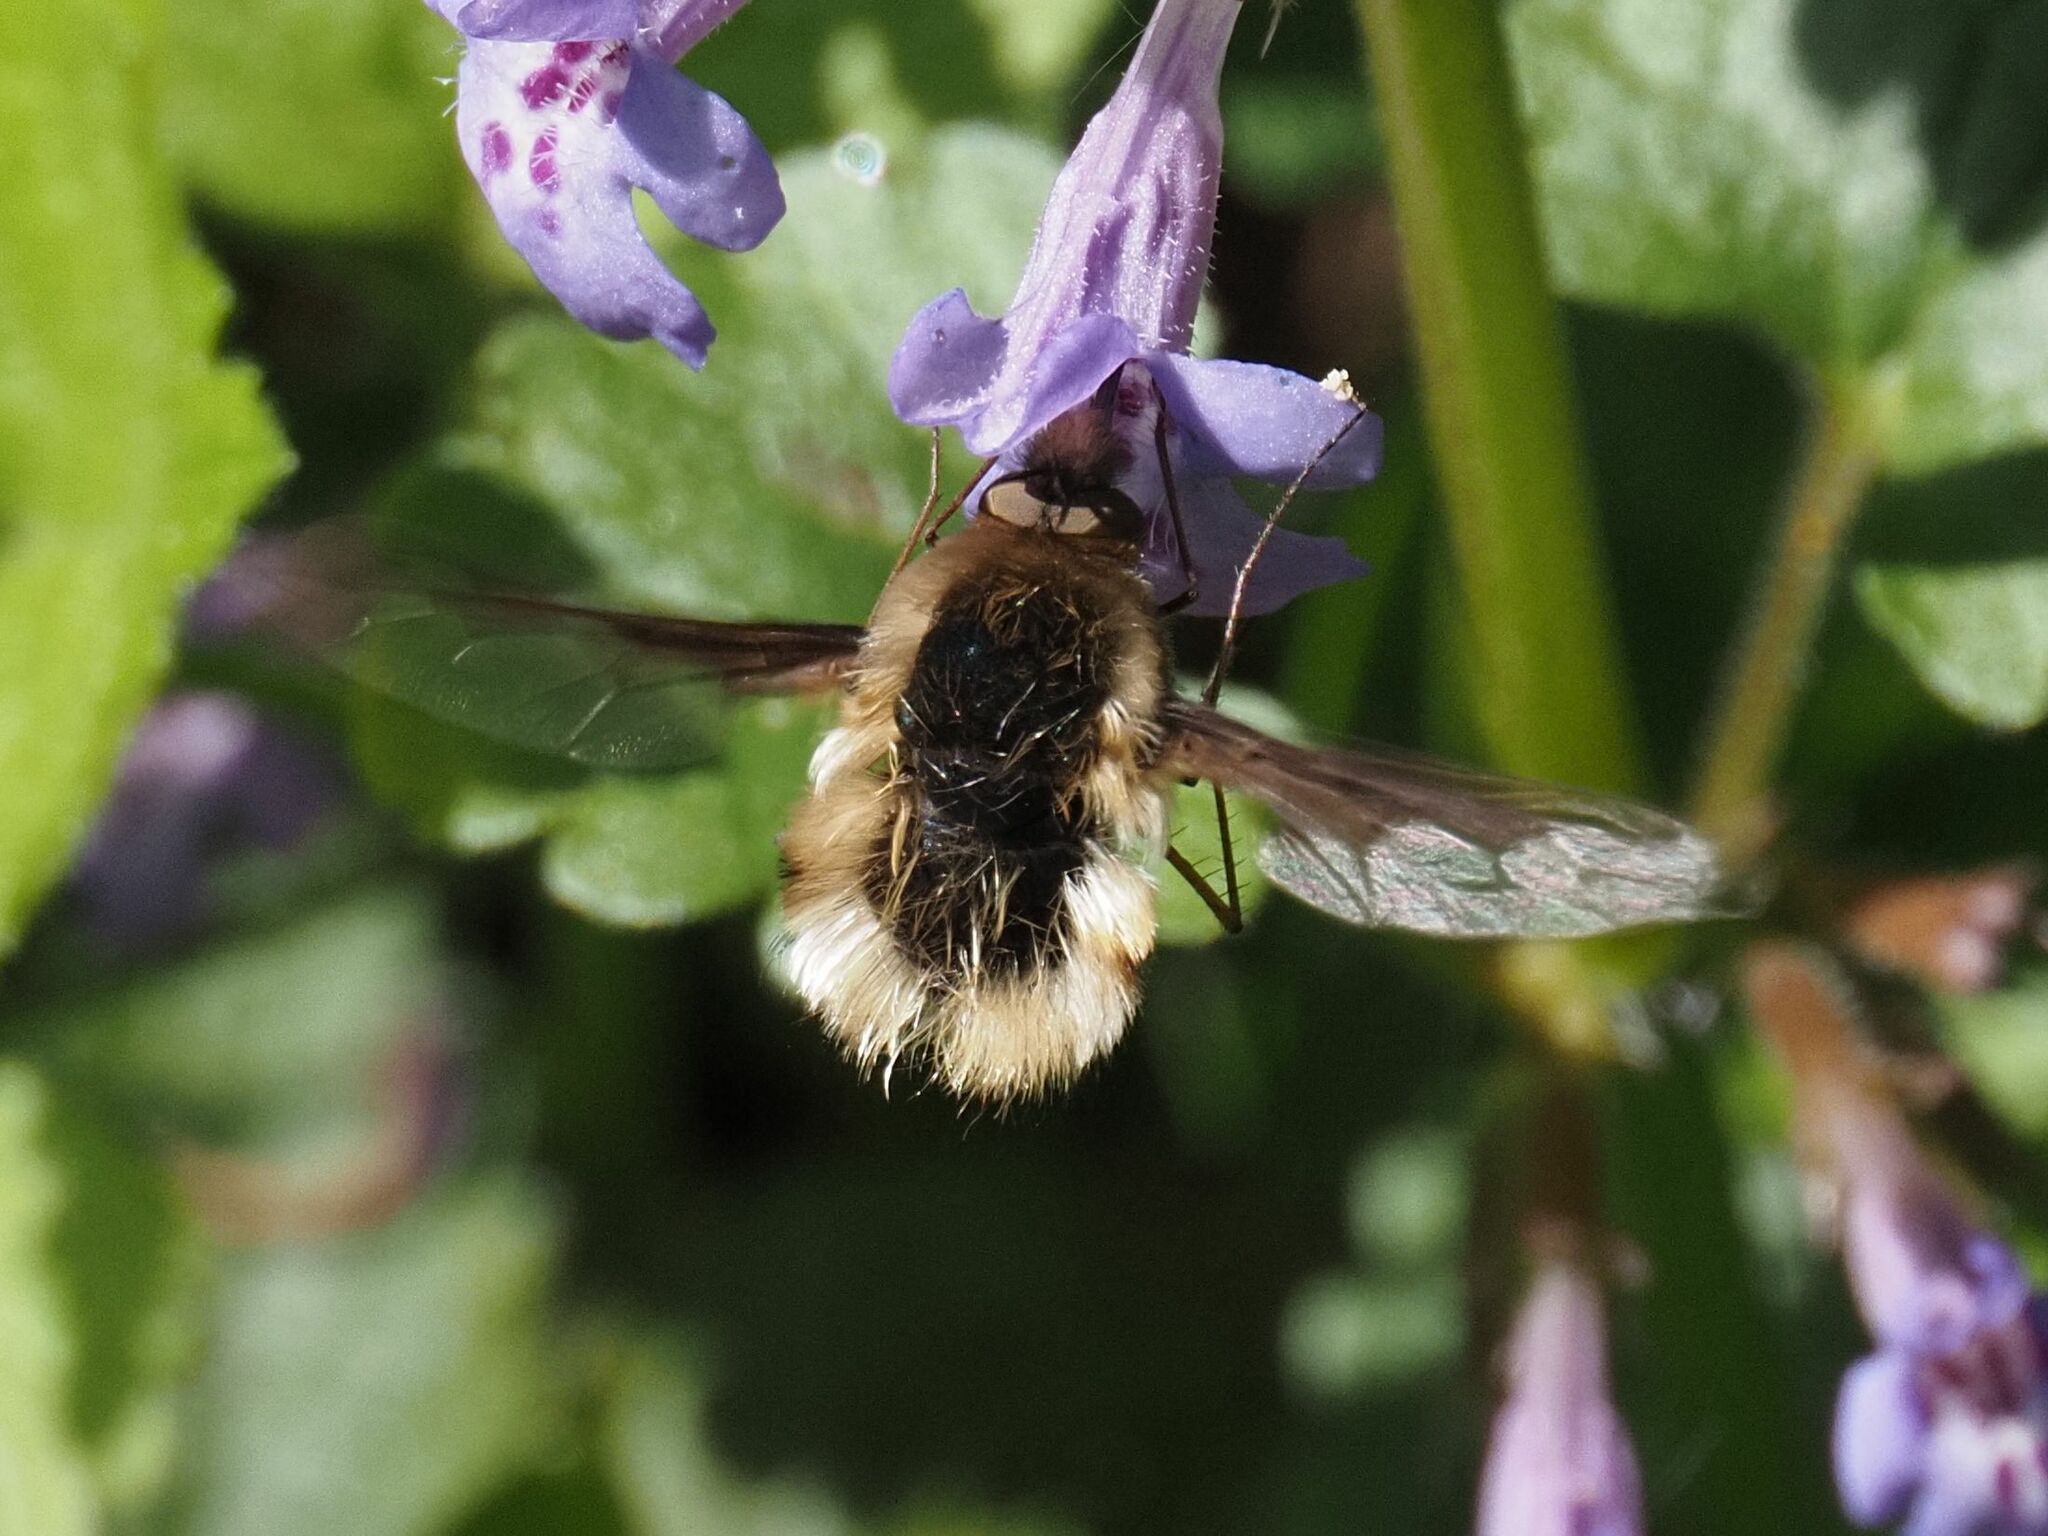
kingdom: Animalia
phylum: Arthropoda
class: Insecta
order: Diptera
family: Bombyliidae
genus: Bombylius
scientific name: Bombylius major
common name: Bee fly
